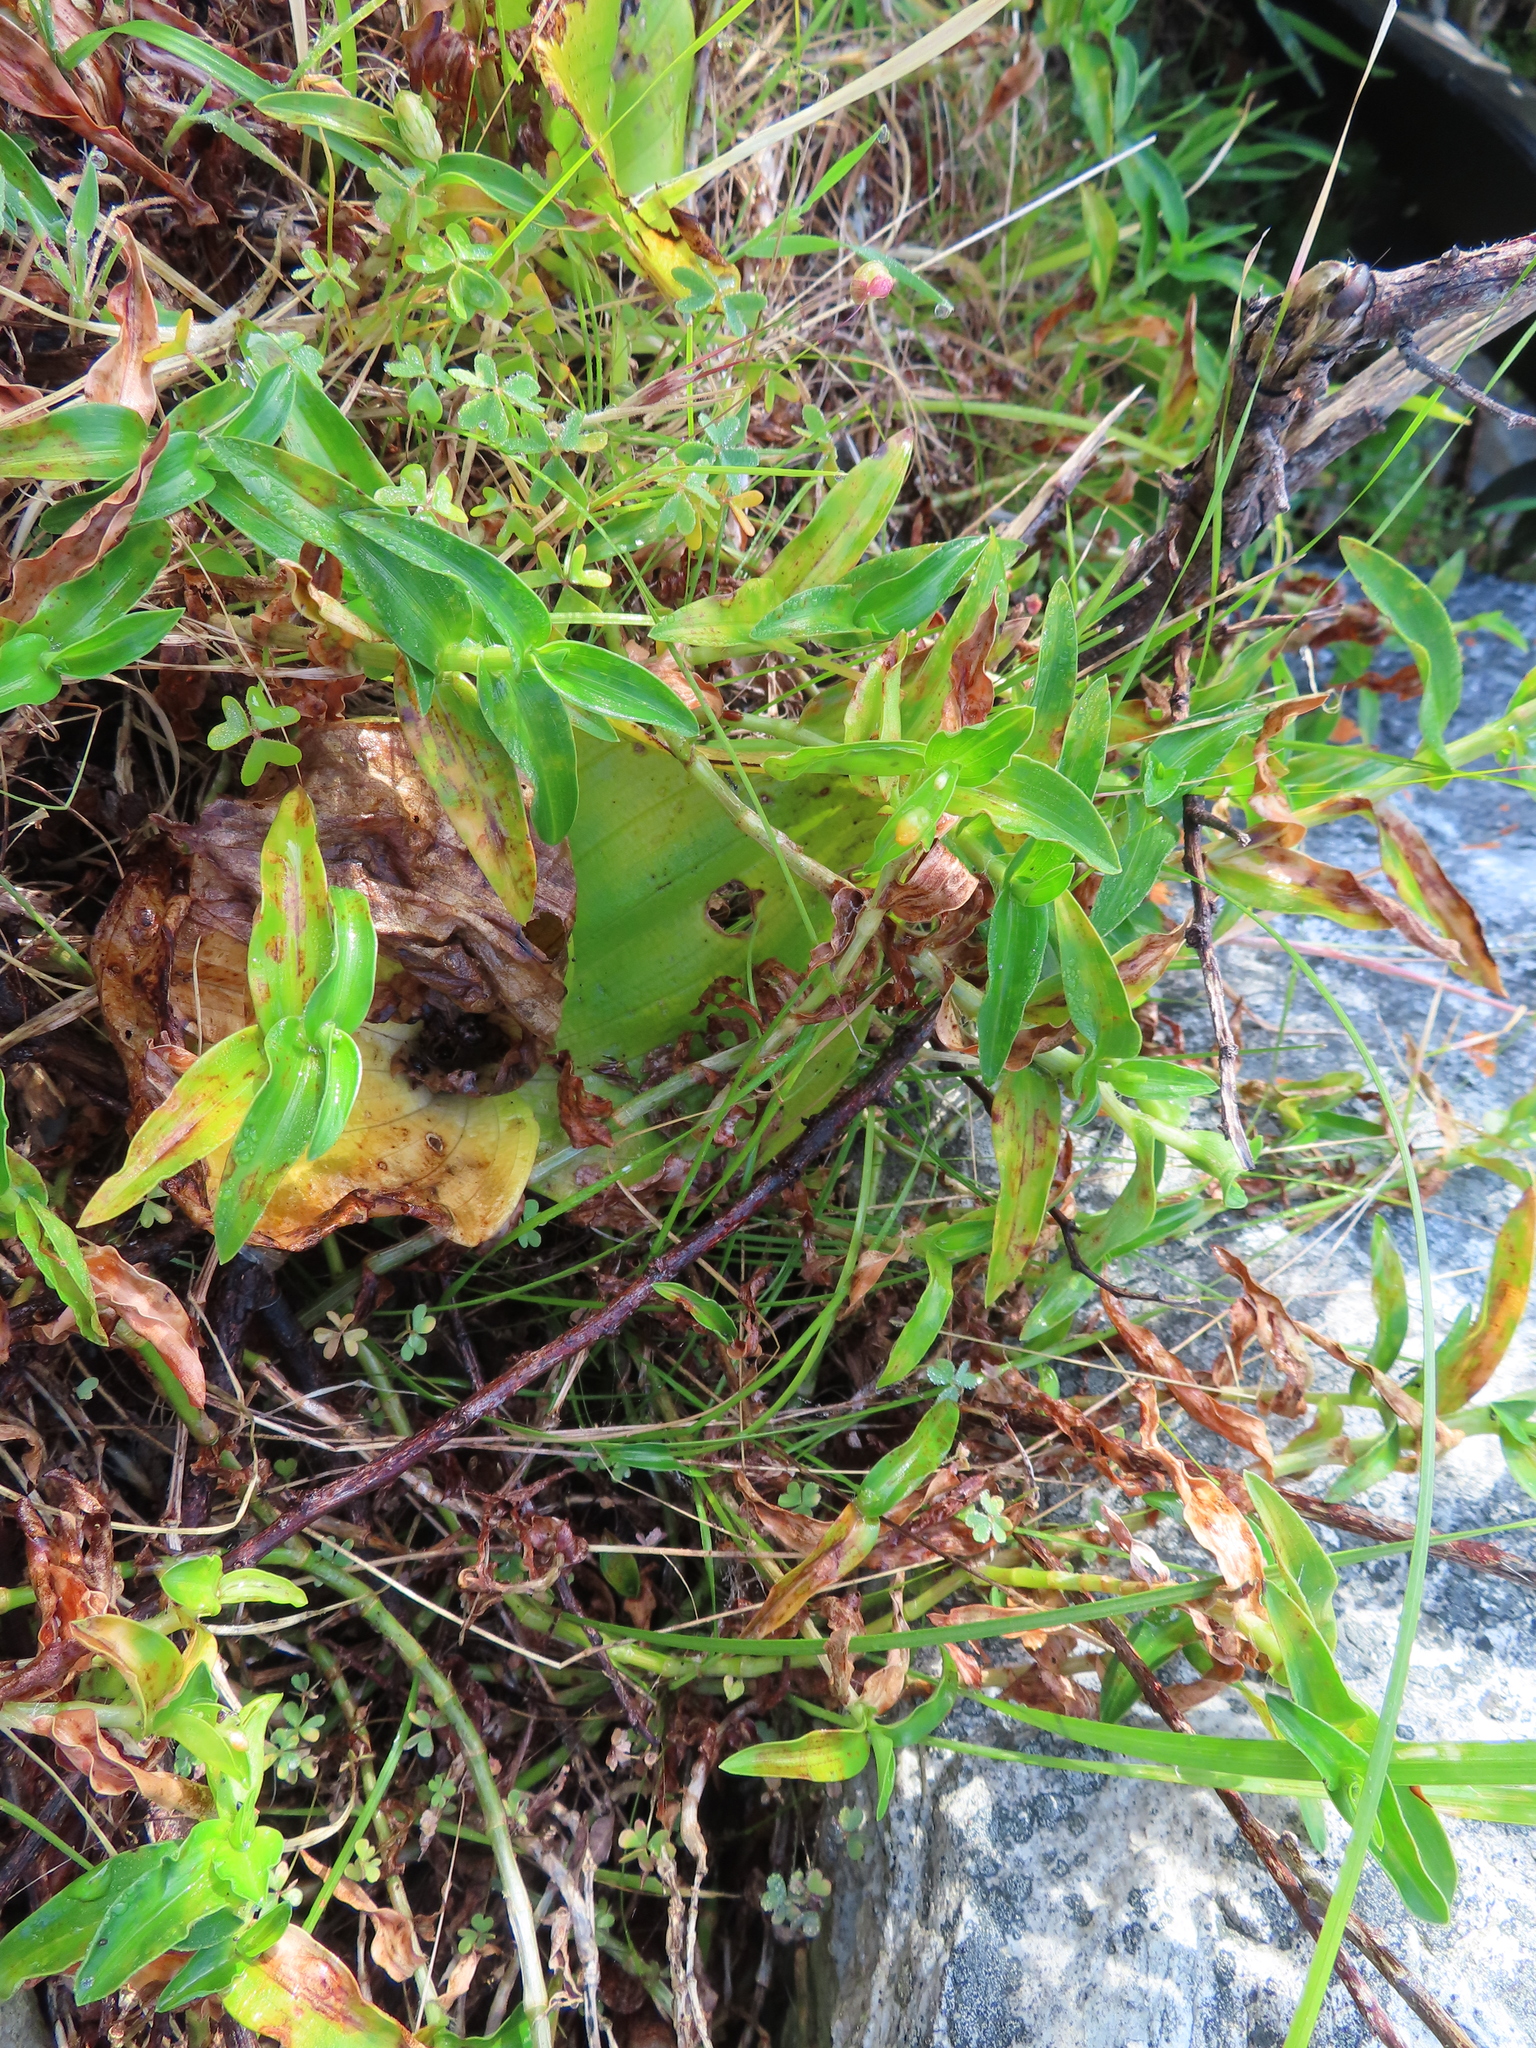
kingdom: Plantae
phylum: Tracheophyta
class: Liliopsida
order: Commelinales
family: Commelinaceae
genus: Commelina
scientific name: Commelina africana
